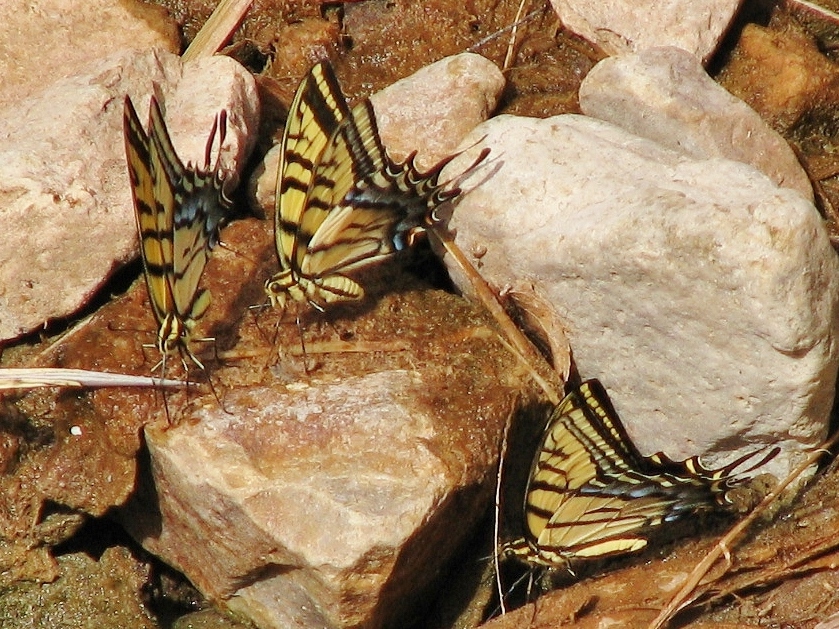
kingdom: Animalia
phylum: Arthropoda
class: Insecta
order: Lepidoptera
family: Papilionidae
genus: Papilio
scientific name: Papilio multicaudata
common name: Two-tailed tiger swallowtail
